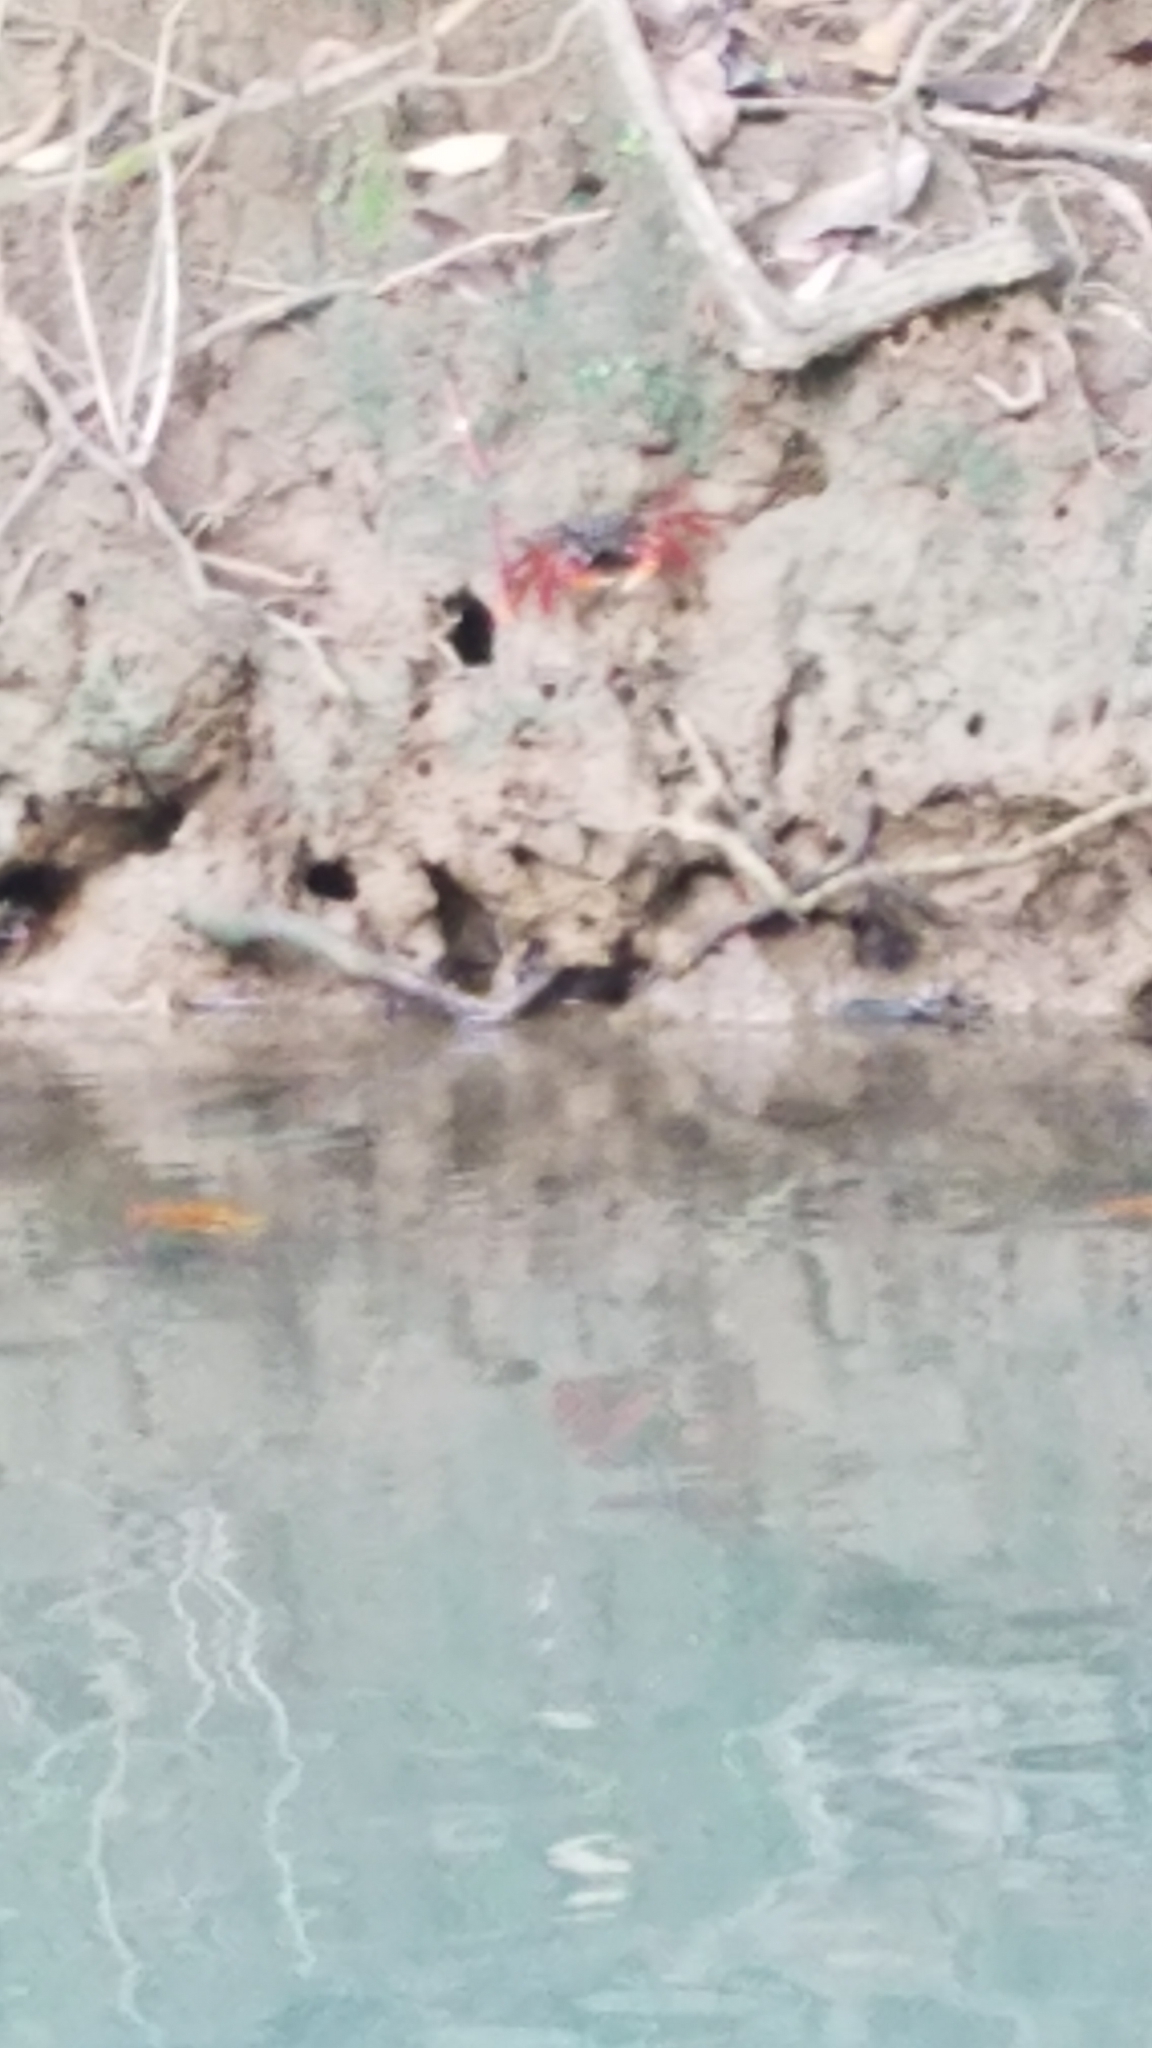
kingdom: Animalia
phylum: Arthropoda
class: Malacostraca
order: Decapoda
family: Grapsidae
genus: Goniopsis
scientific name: Goniopsis cruentata
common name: Mangrove crab
